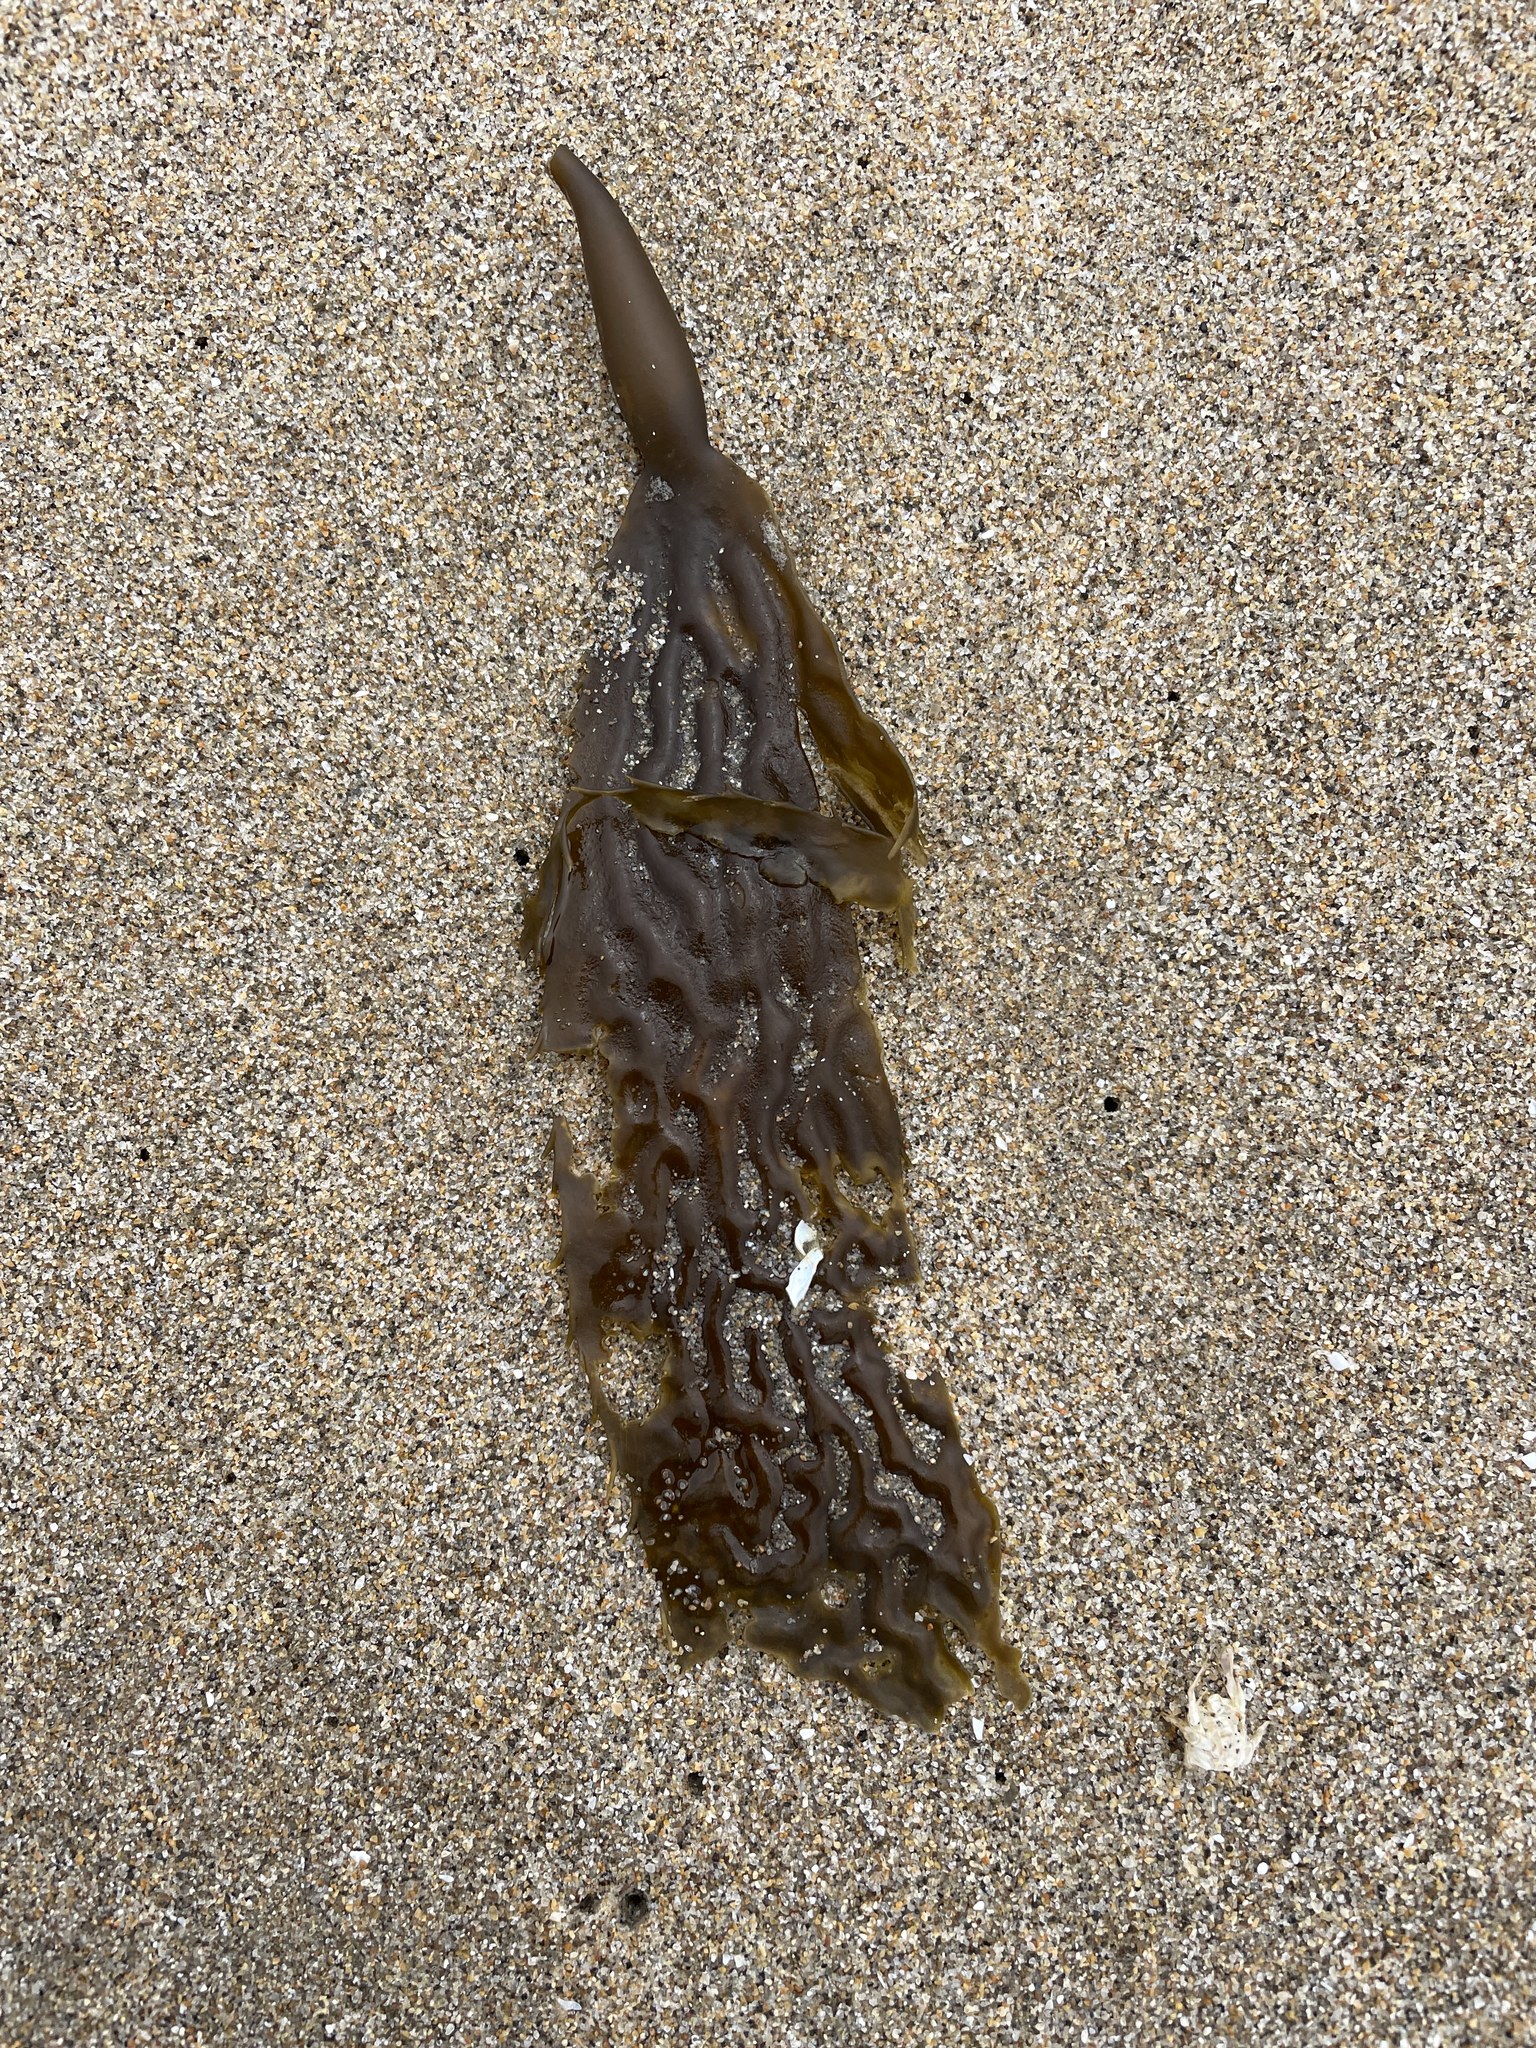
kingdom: Chromista
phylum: Ochrophyta
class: Phaeophyceae
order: Laminariales
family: Laminariaceae
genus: Macrocystis
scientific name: Macrocystis pyrifera
